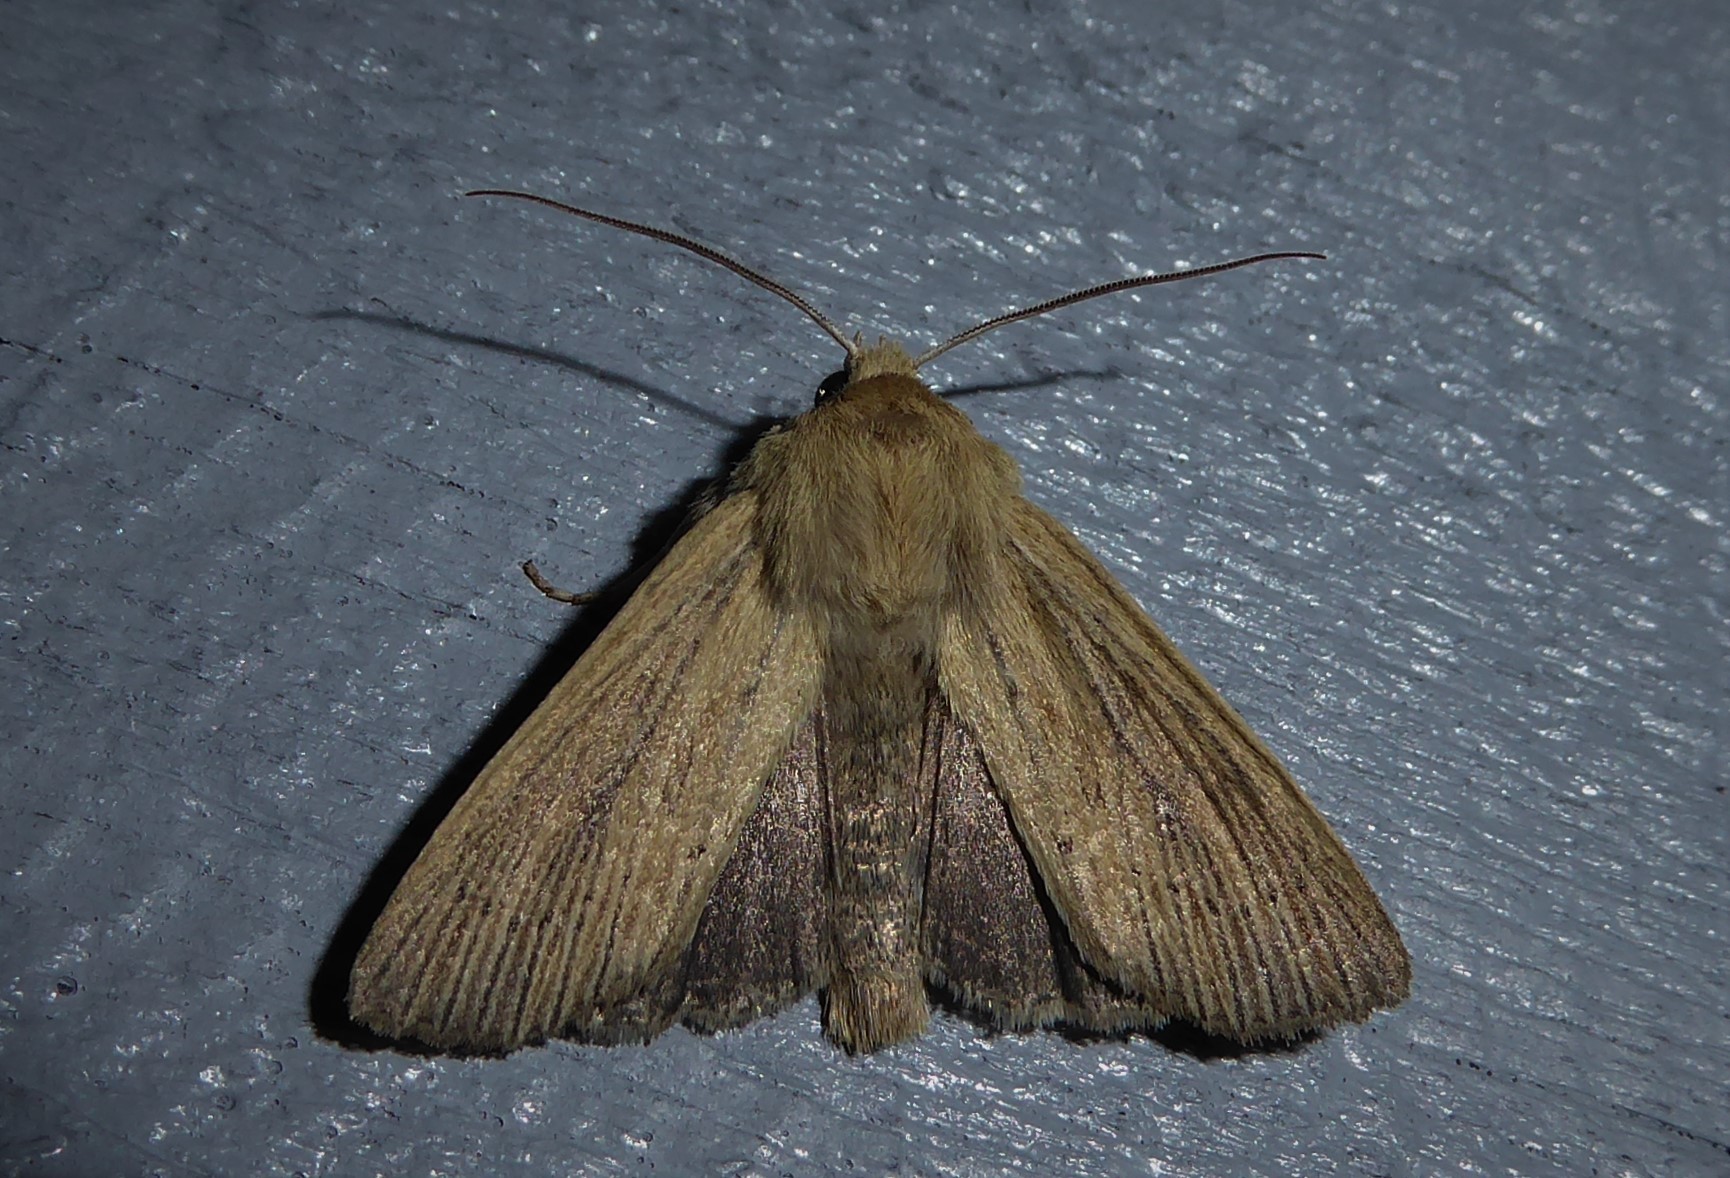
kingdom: Animalia
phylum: Arthropoda
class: Insecta
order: Lepidoptera
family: Noctuidae
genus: Ichneutica
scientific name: Ichneutica arotis
